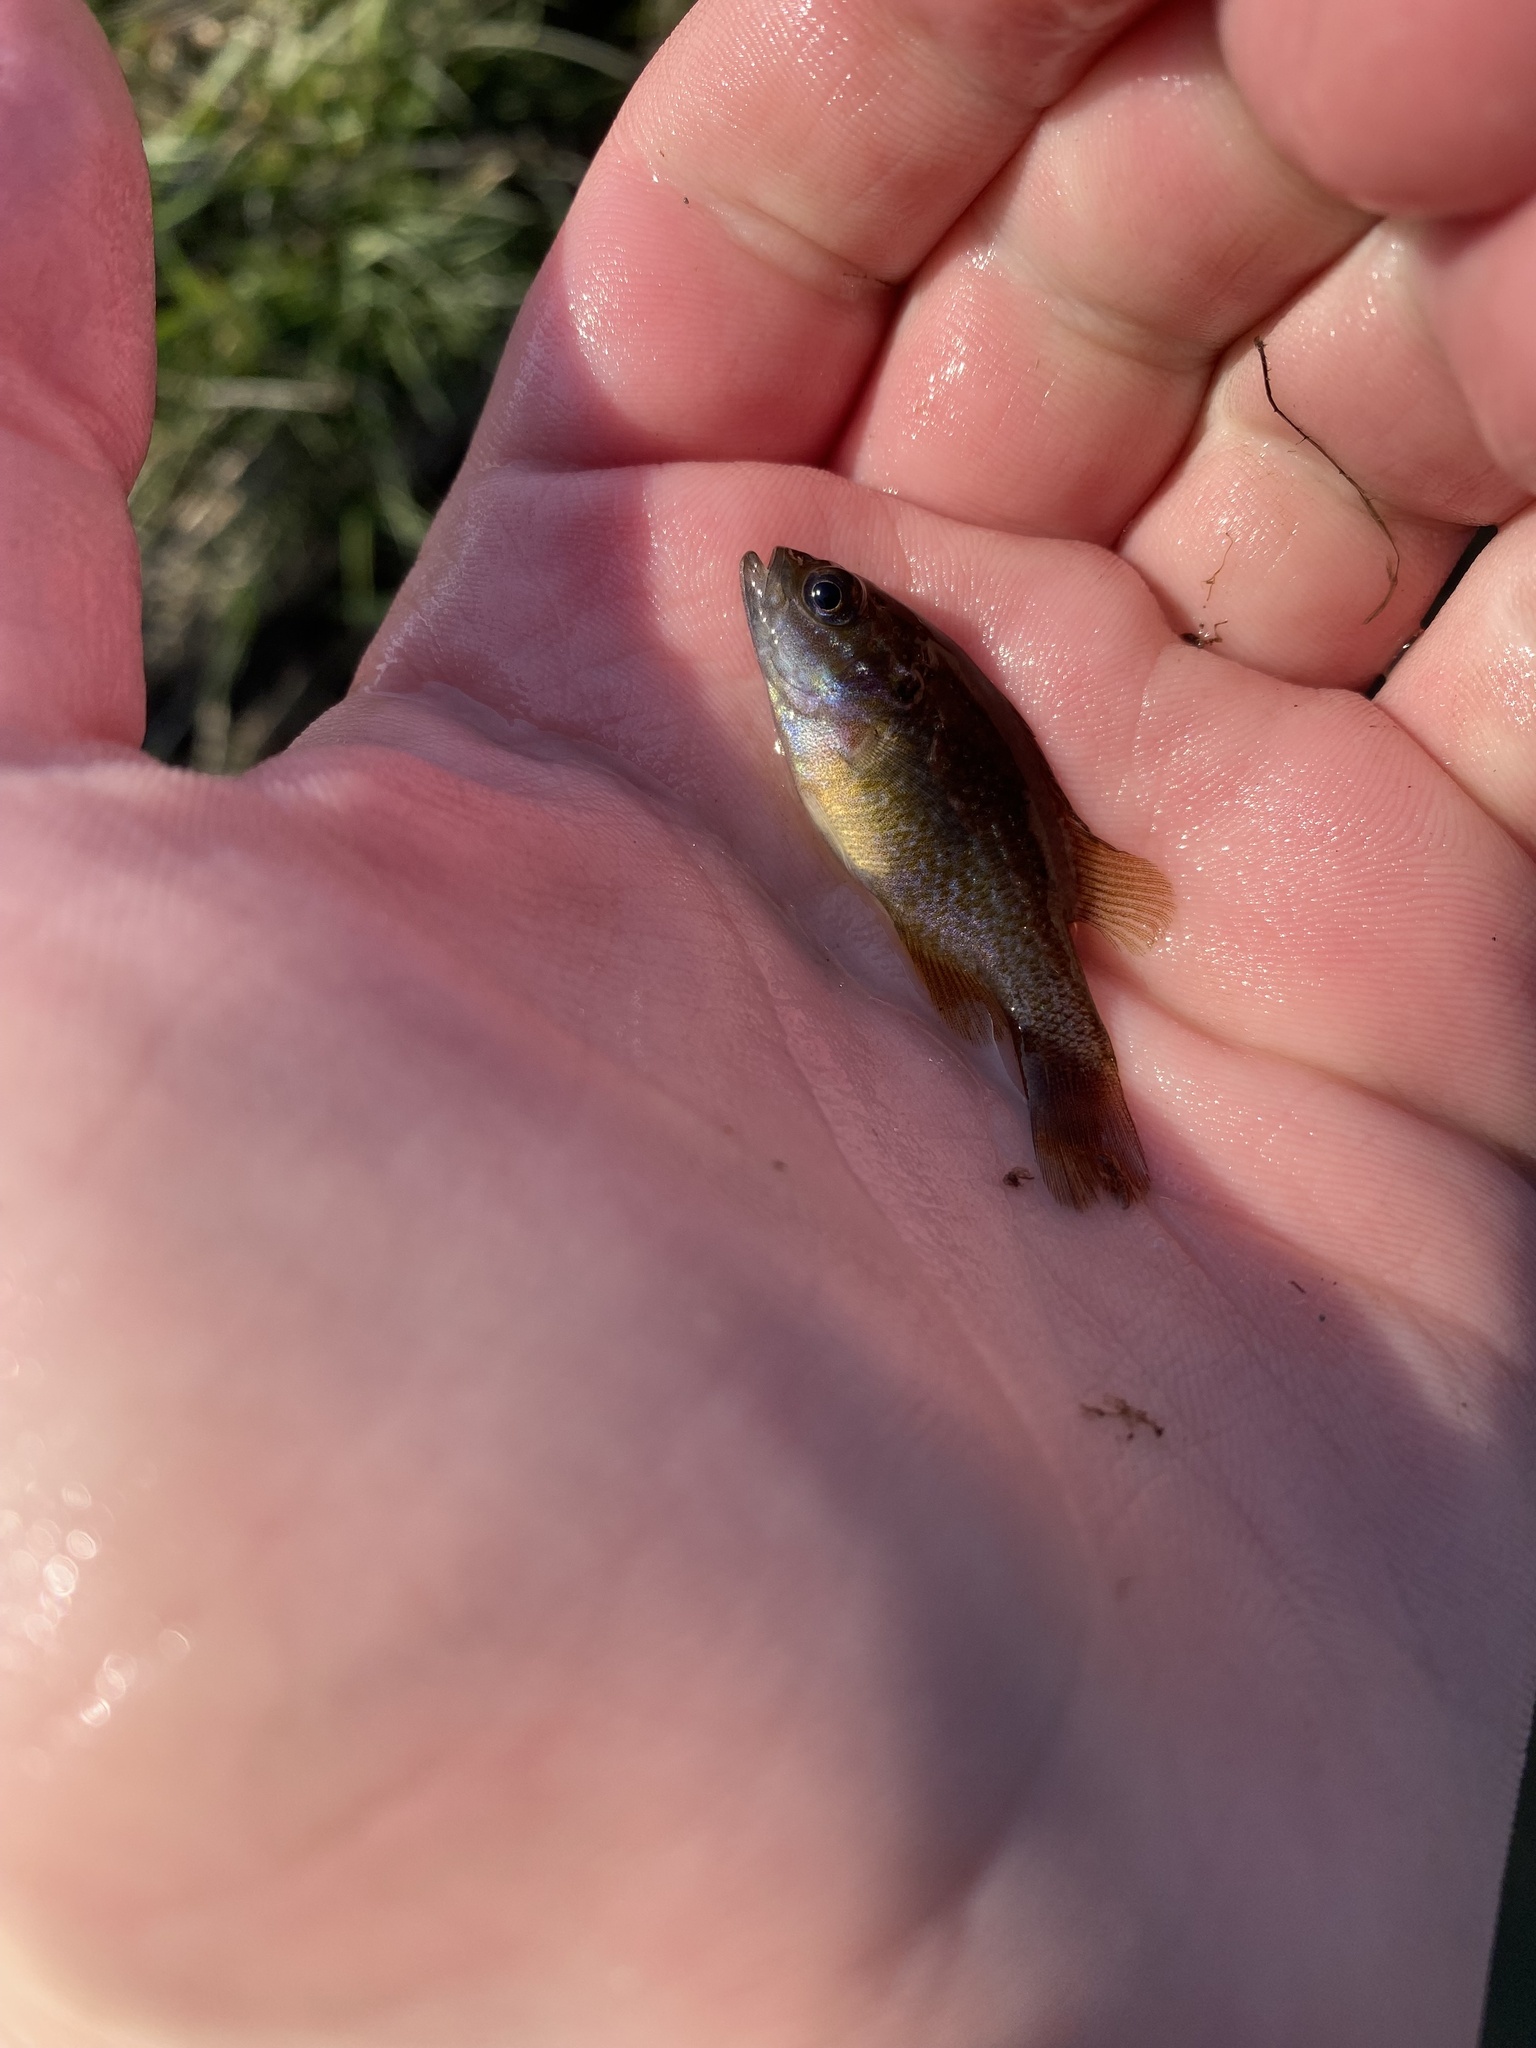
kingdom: Animalia
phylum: Chordata
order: Perciformes
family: Centrarchidae
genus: Lepomis
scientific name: Lepomis cyanellus
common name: Green sunfish
